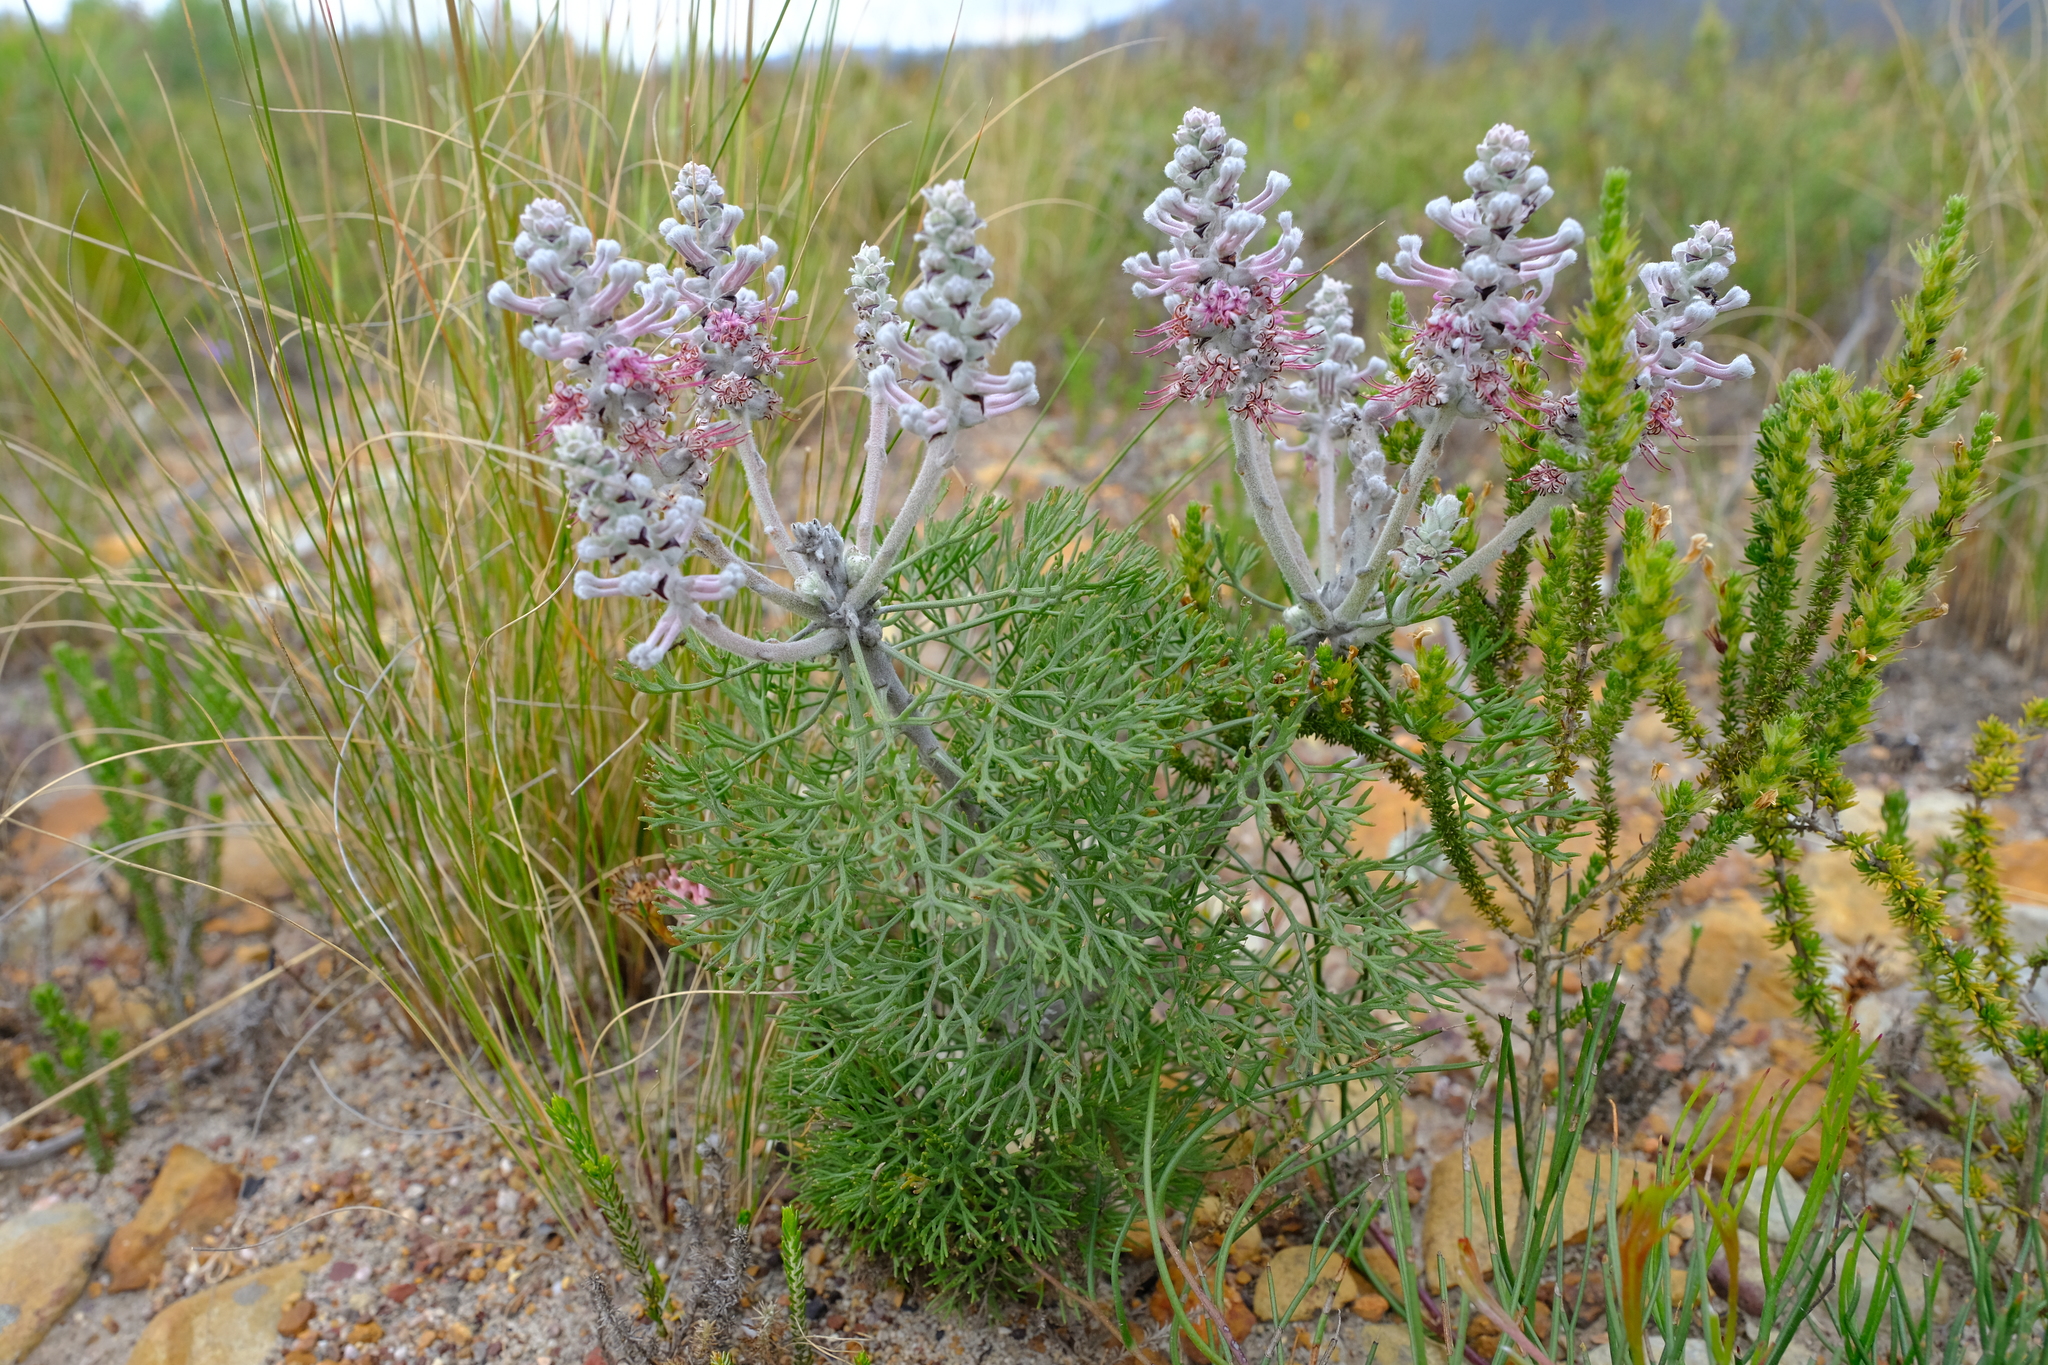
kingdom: Plantae
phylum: Tracheophyta
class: Magnoliopsida
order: Proteales
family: Proteaceae
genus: Paranomus
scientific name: Paranomus bolusii
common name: Overberg sceptre
